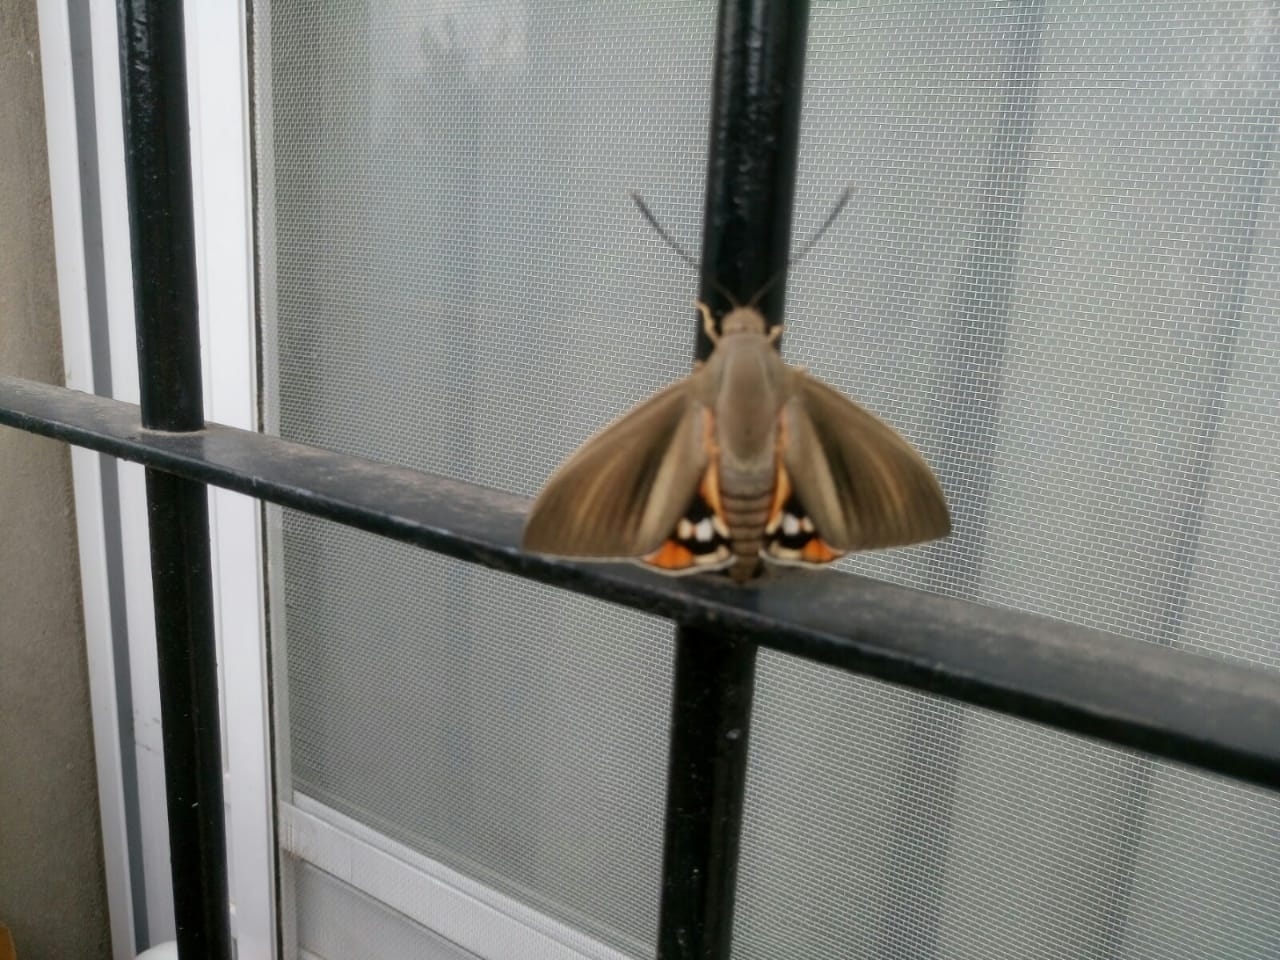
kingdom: Animalia
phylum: Arthropoda
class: Insecta
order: Lepidoptera
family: Castniidae
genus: Paysandisia
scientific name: Paysandisia archon
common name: Palm moth
